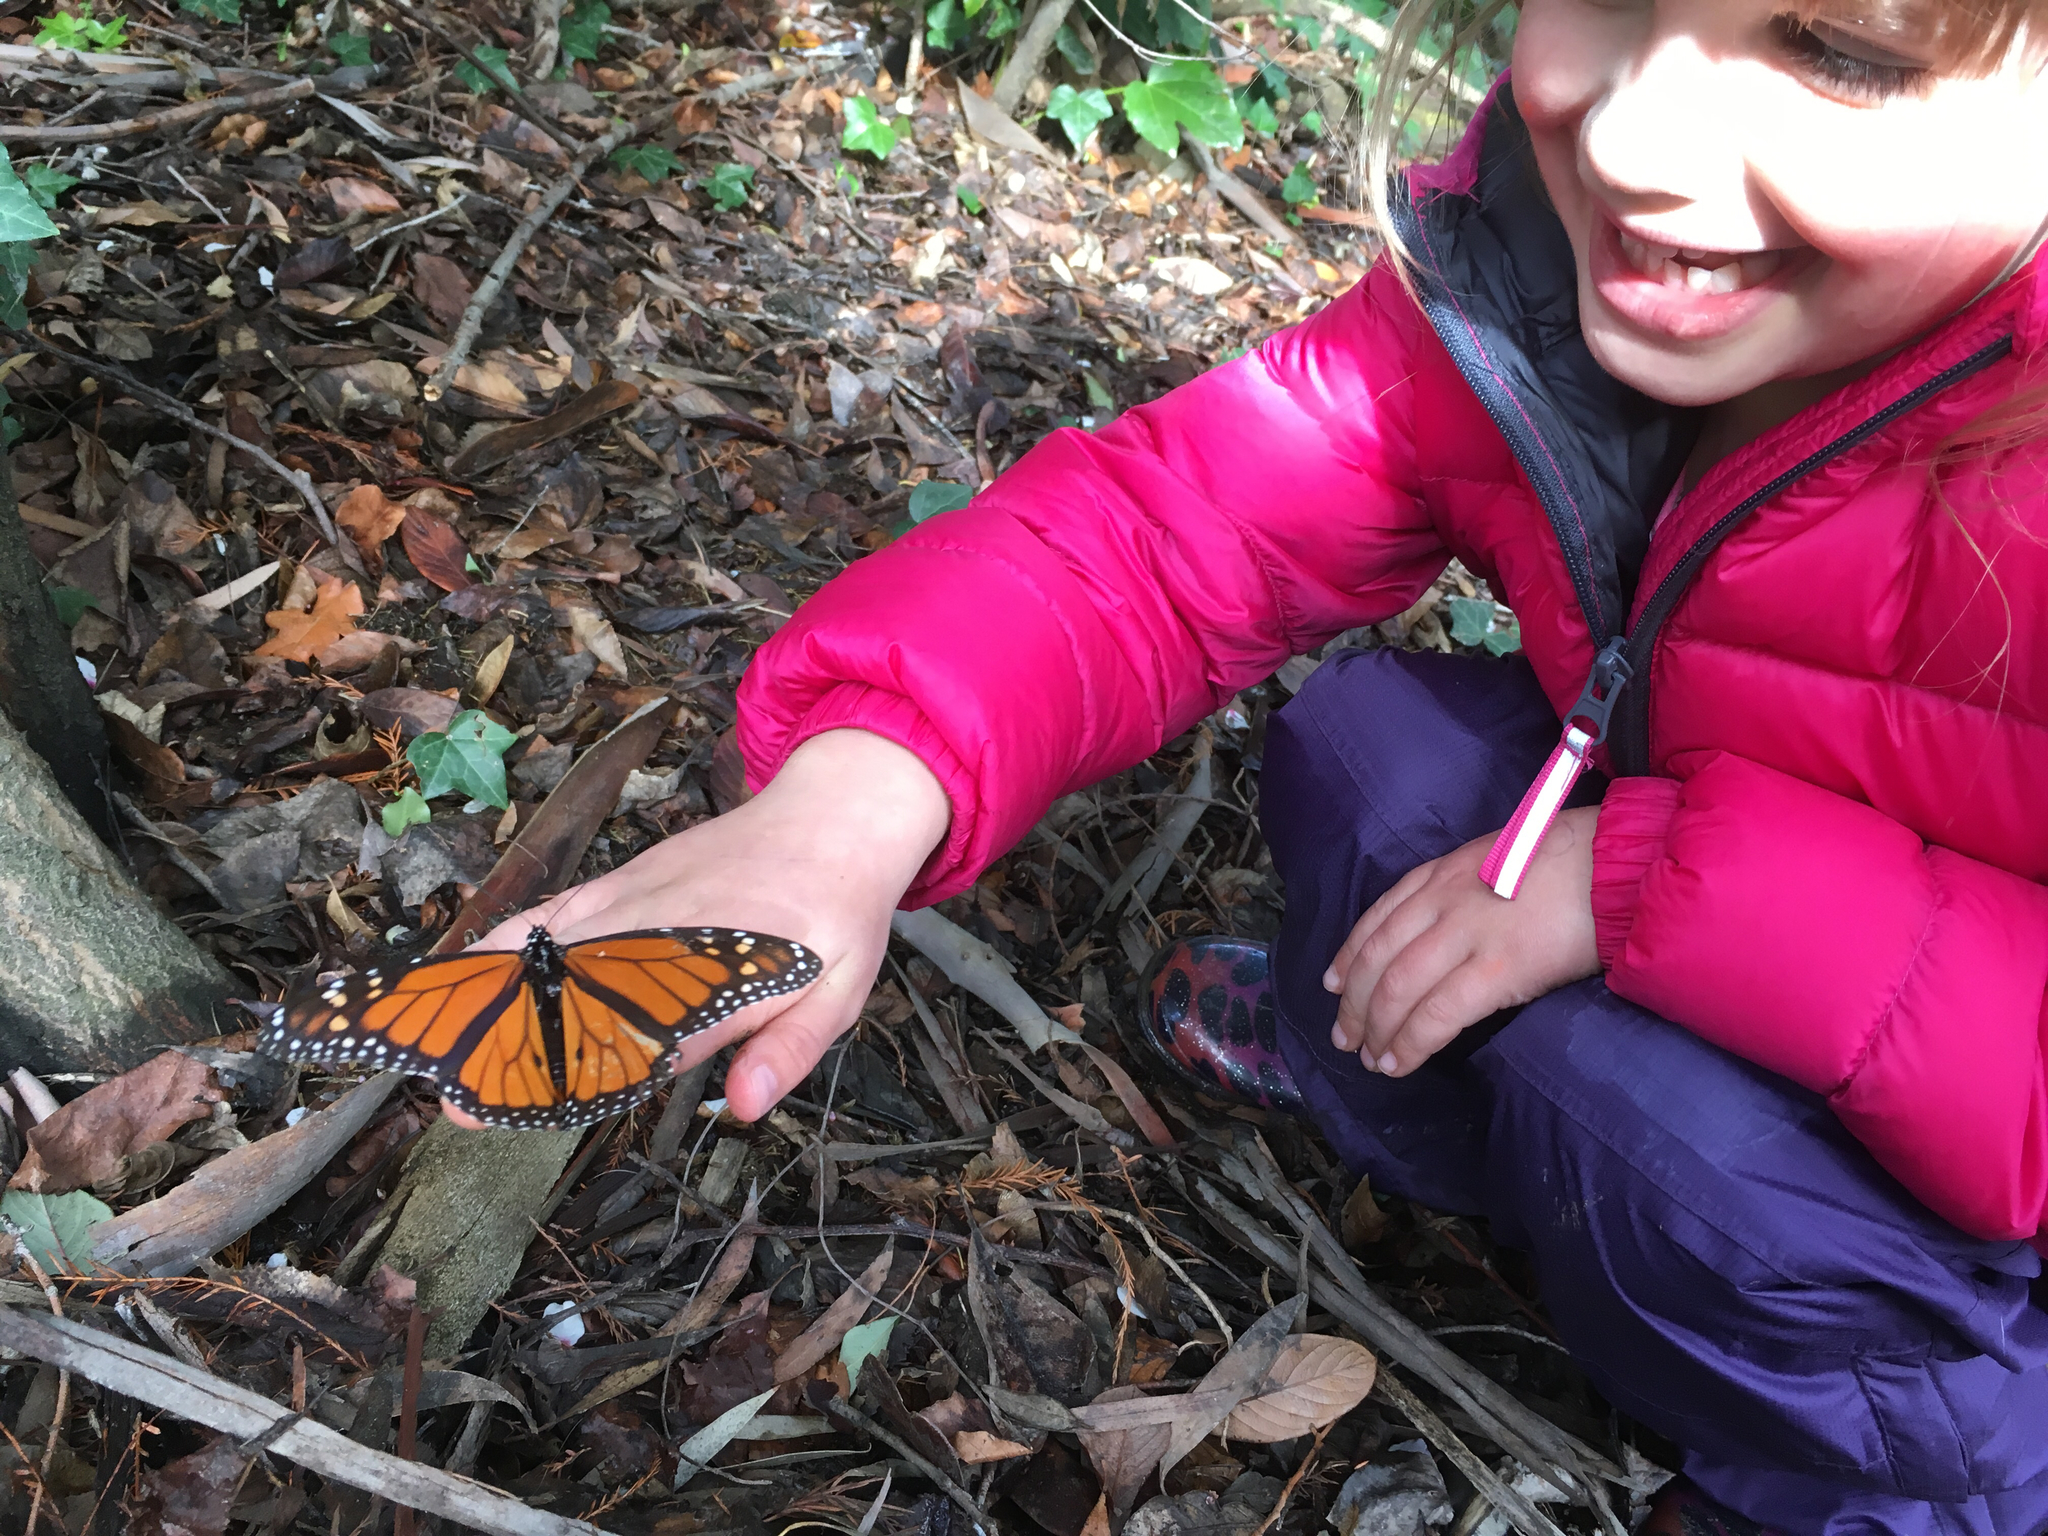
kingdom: Animalia
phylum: Arthropoda
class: Insecta
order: Lepidoptera
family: Nymphalidae
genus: Danaus
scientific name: Danaus plexippus
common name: Monarch
